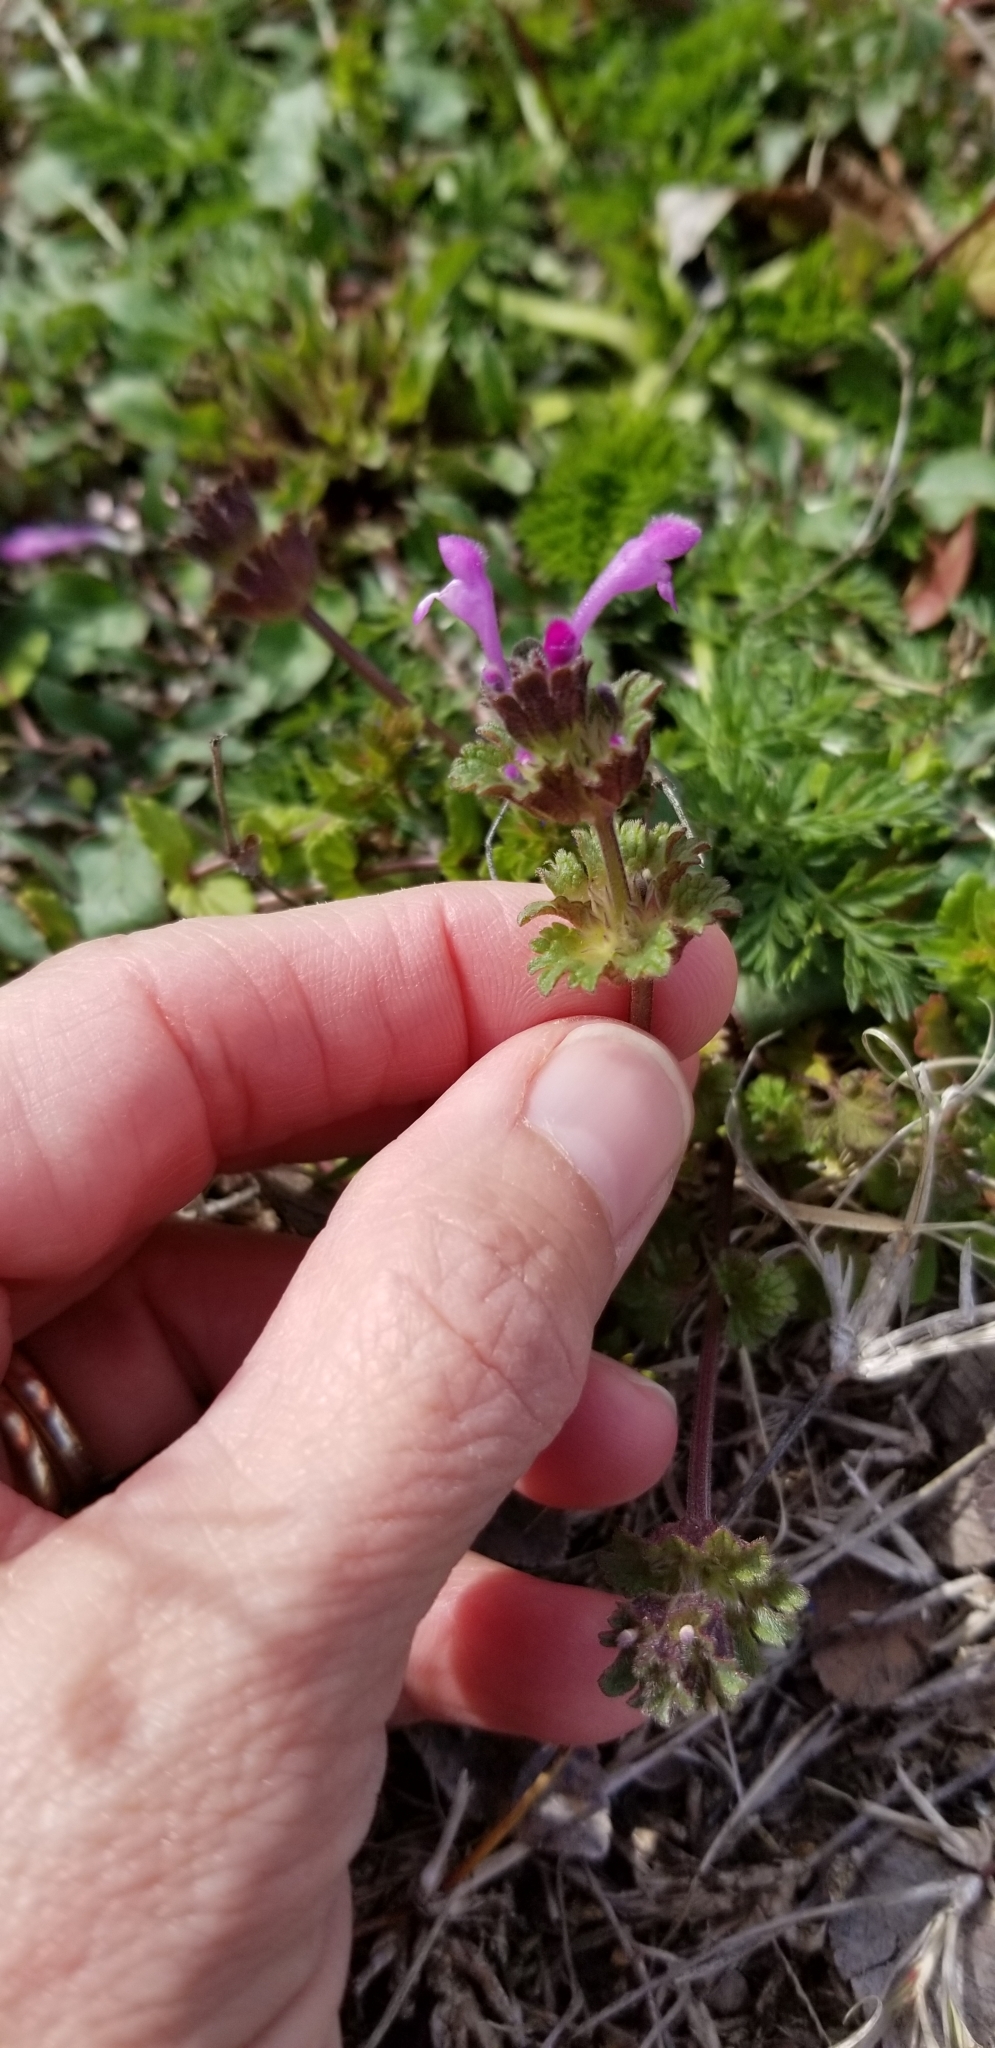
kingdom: Plantae
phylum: Tracheophyta
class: Magnoliopsida
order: Lamiales
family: Lamiaceae
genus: Lamium
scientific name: Lamium amplexicaule
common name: Henbit dead-nettle
